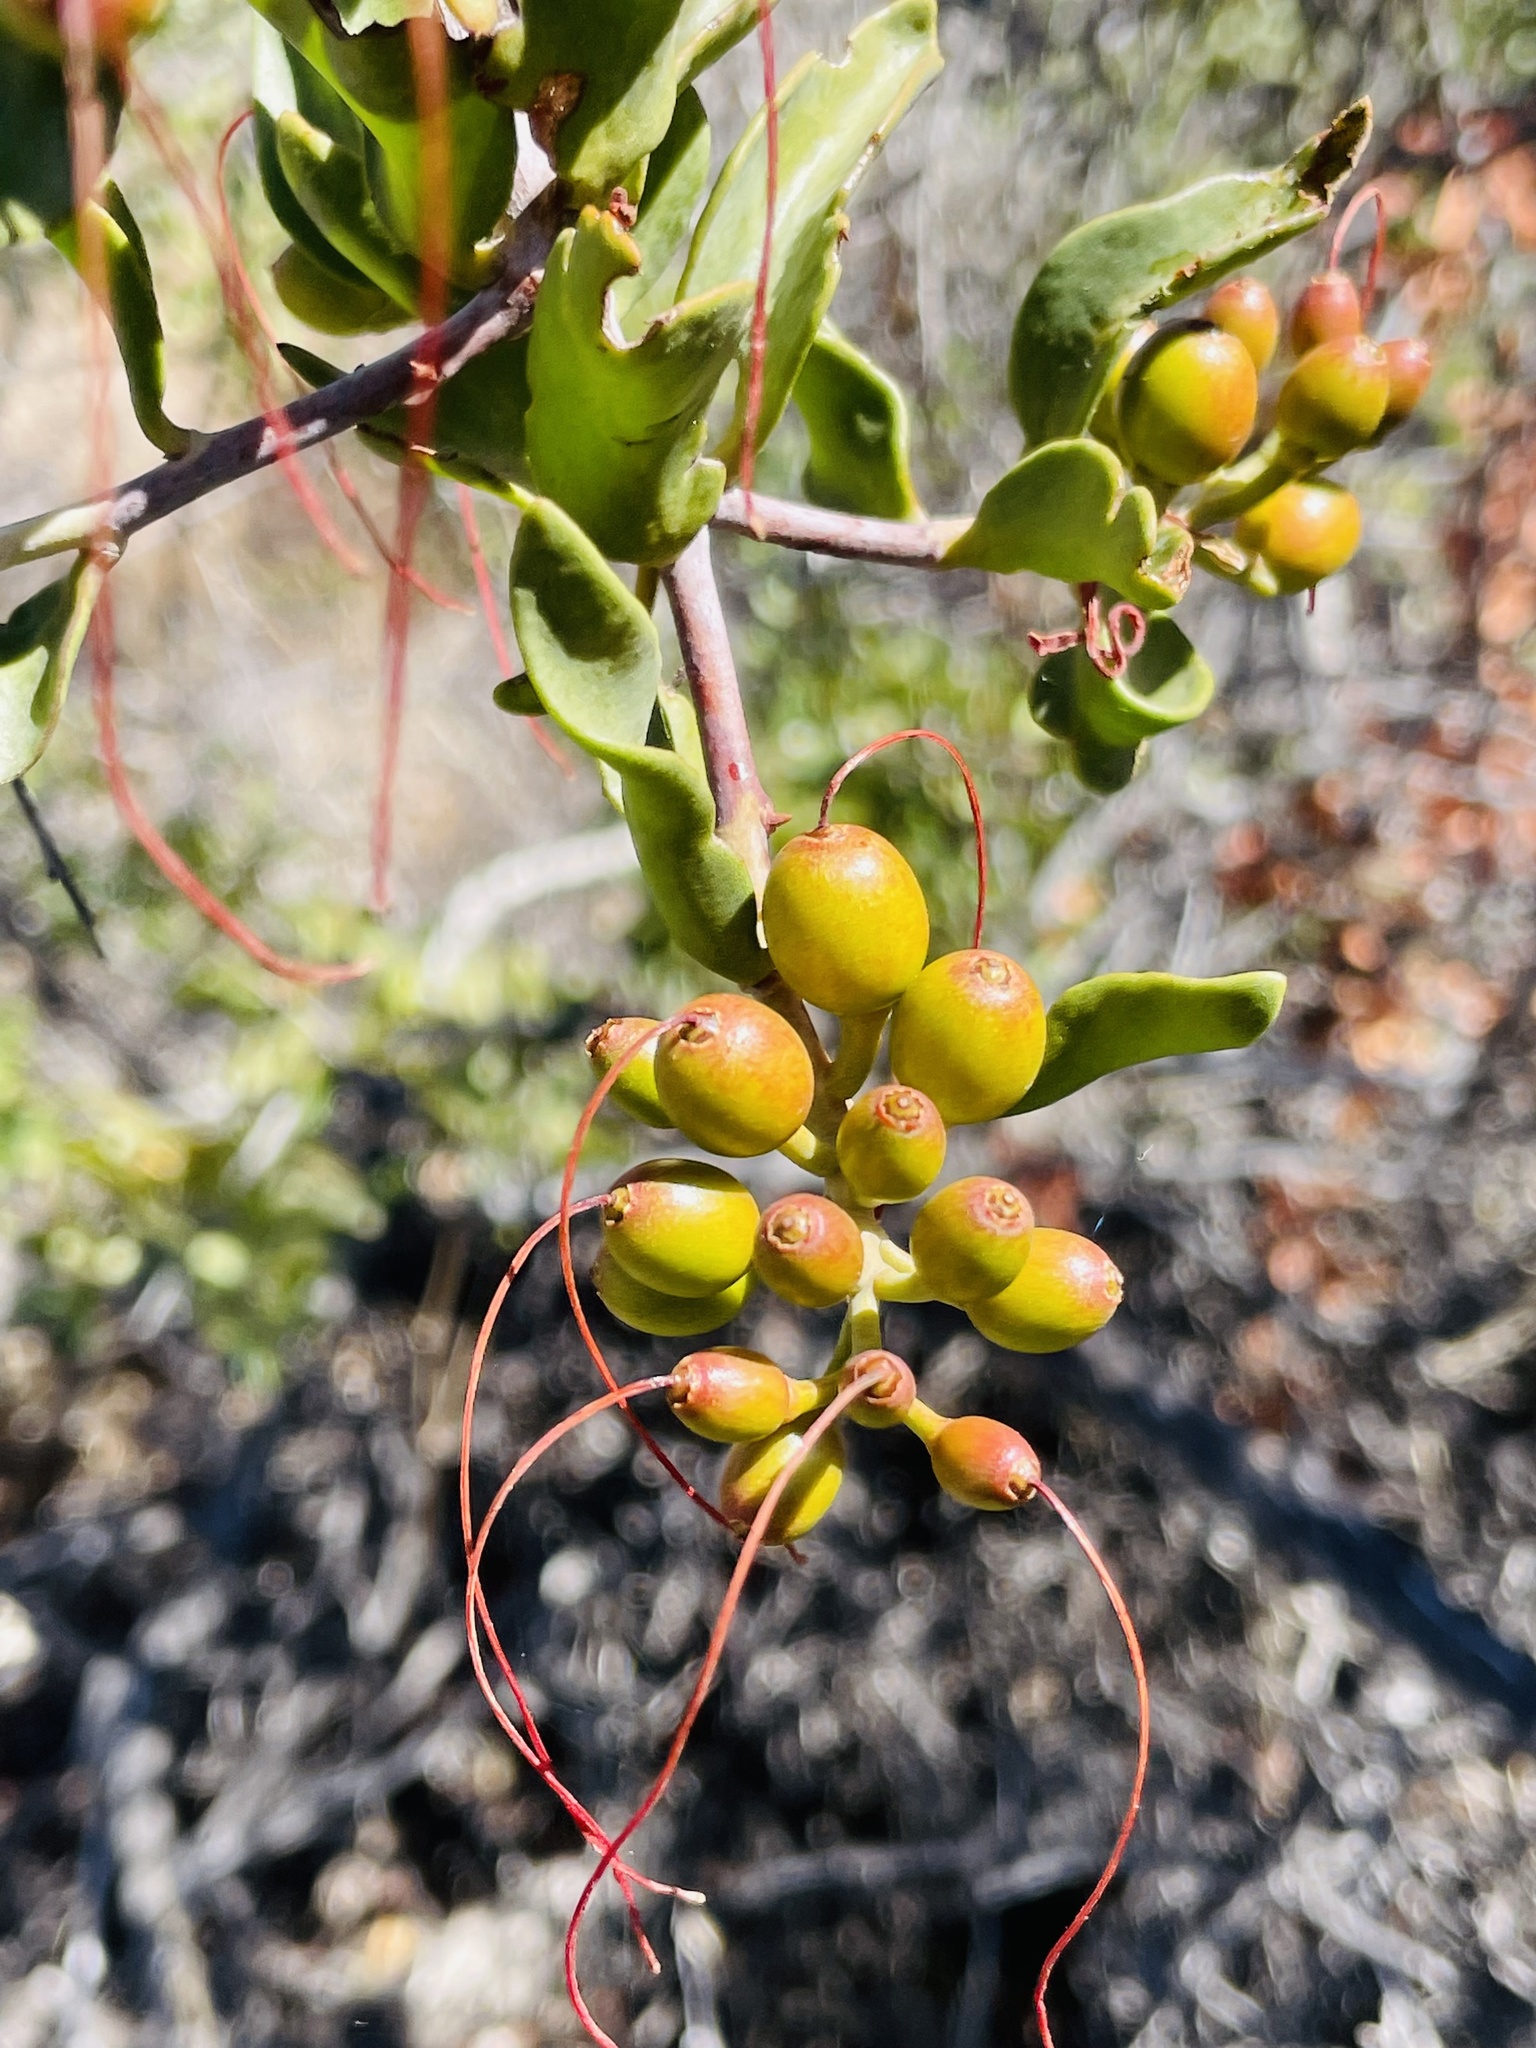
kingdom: Plantae
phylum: Tracheophyta
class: Magnoliopsida
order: Santalales
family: Loranthaceae
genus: Tristerix
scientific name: Tristerix verticillatus
